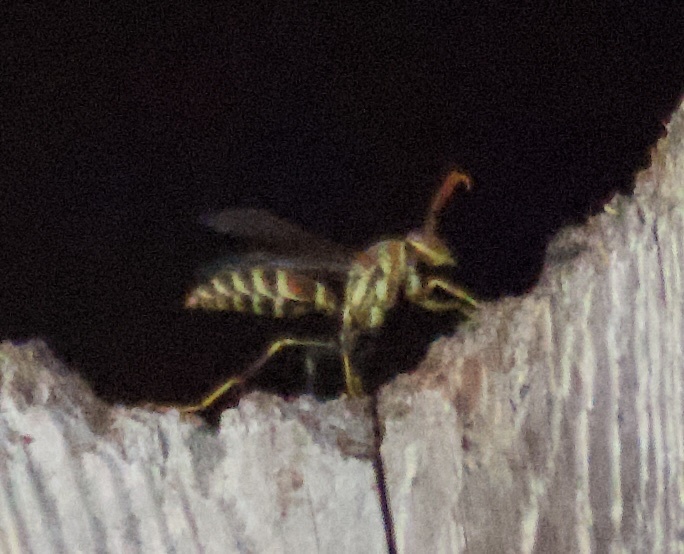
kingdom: Animalia
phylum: Arthropoda
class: Insecta
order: Hymenoptera
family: Eumenidae
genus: Polistes
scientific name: Polistes exclamans
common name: Paper wasp
